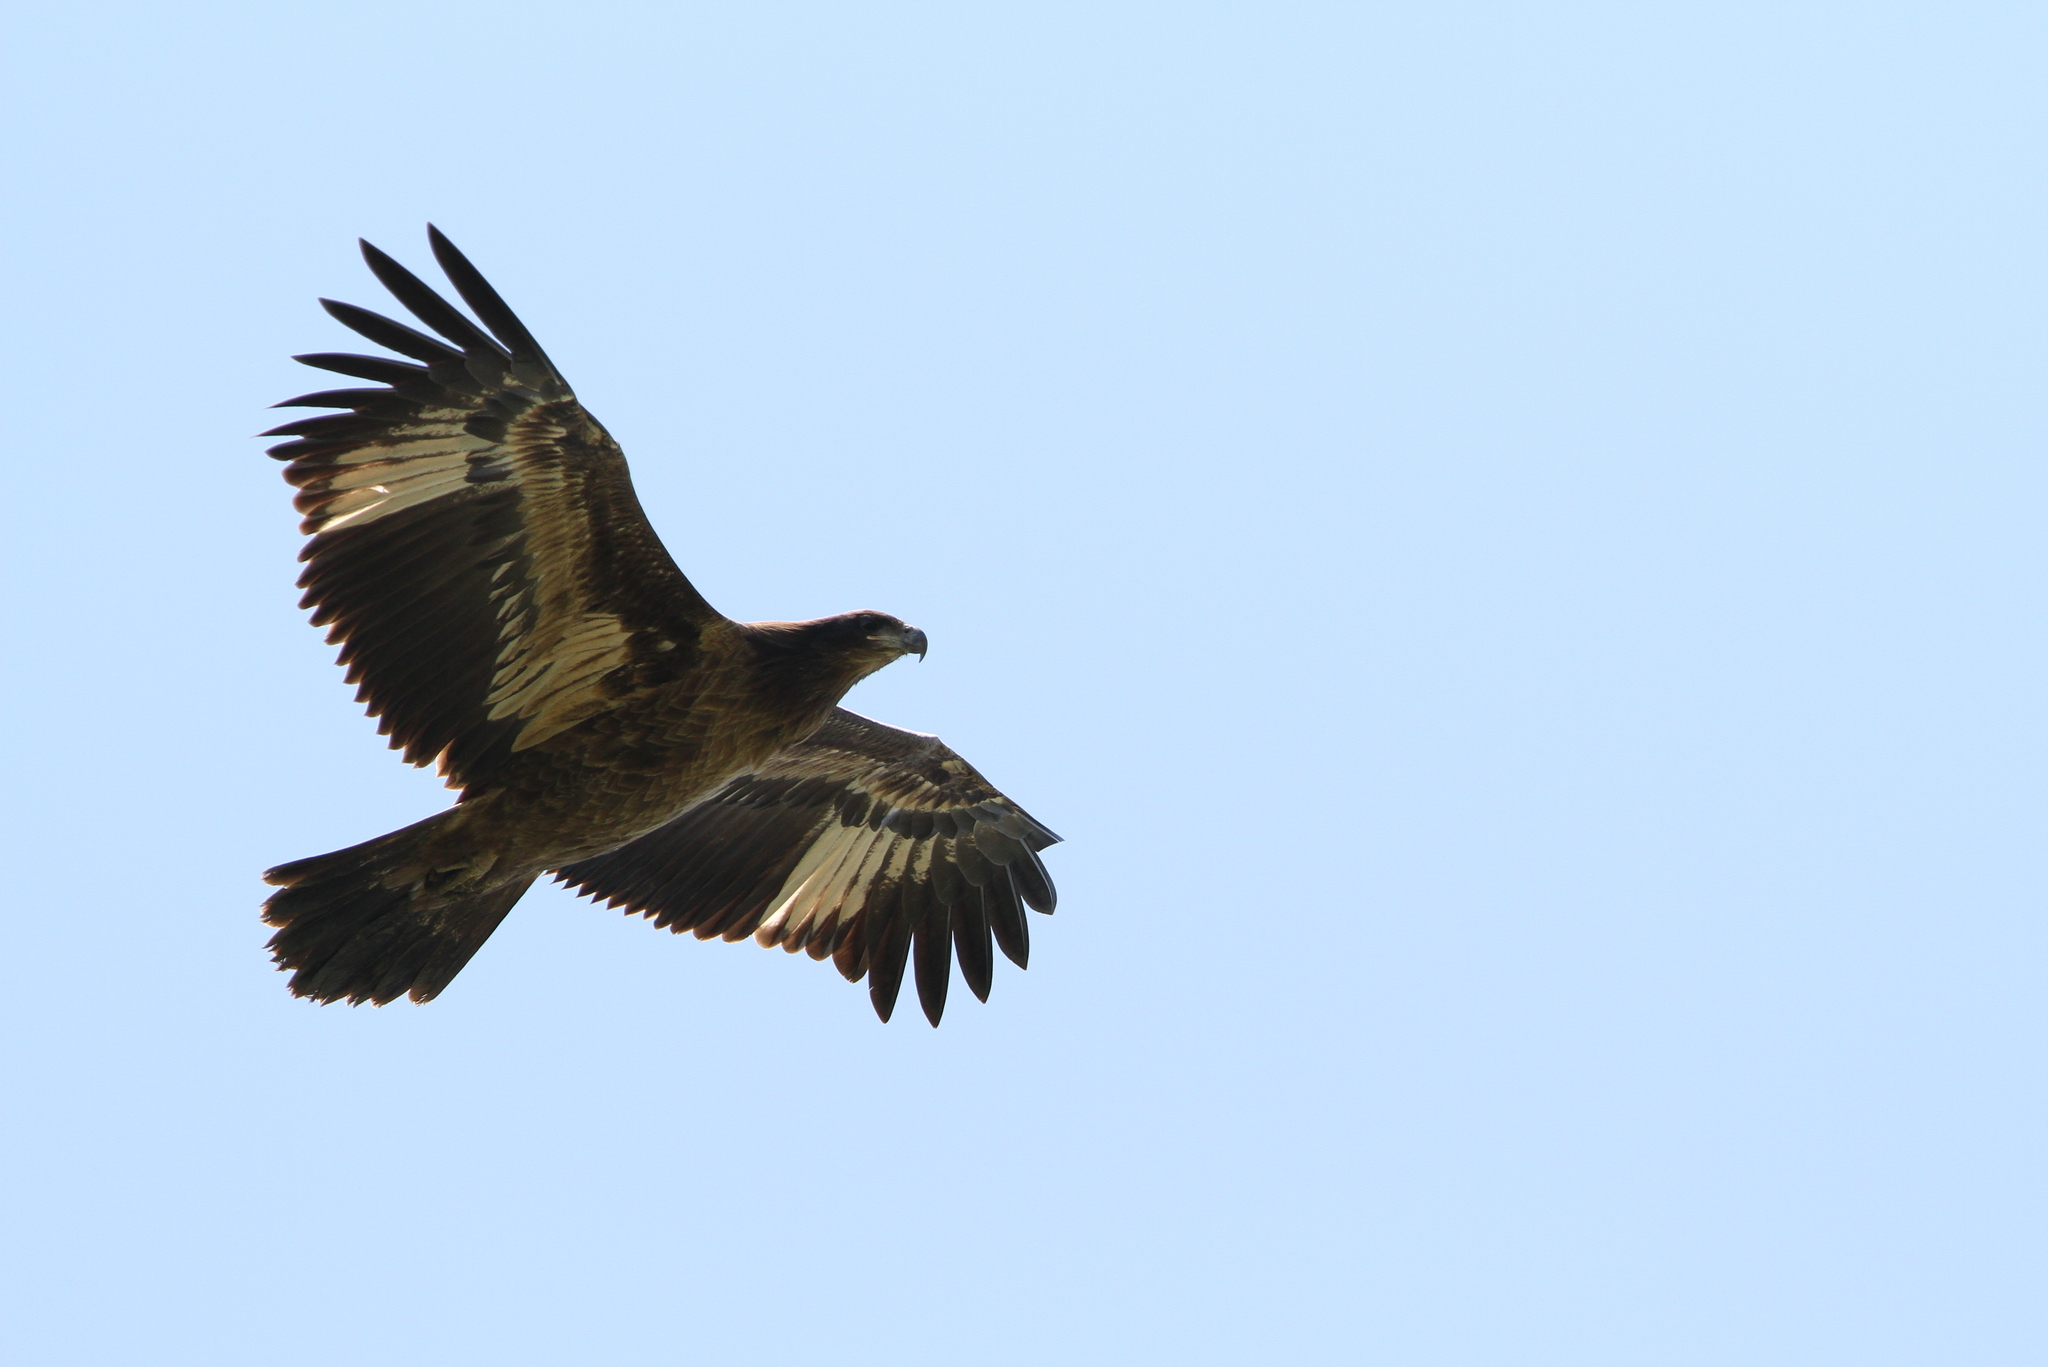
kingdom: Animalia
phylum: Chordata
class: Aves
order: Accipitriformes
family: Accipitridae
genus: Haliaeetus
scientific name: Haliaeetus leucoryphus
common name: Pallas's fish eagle
